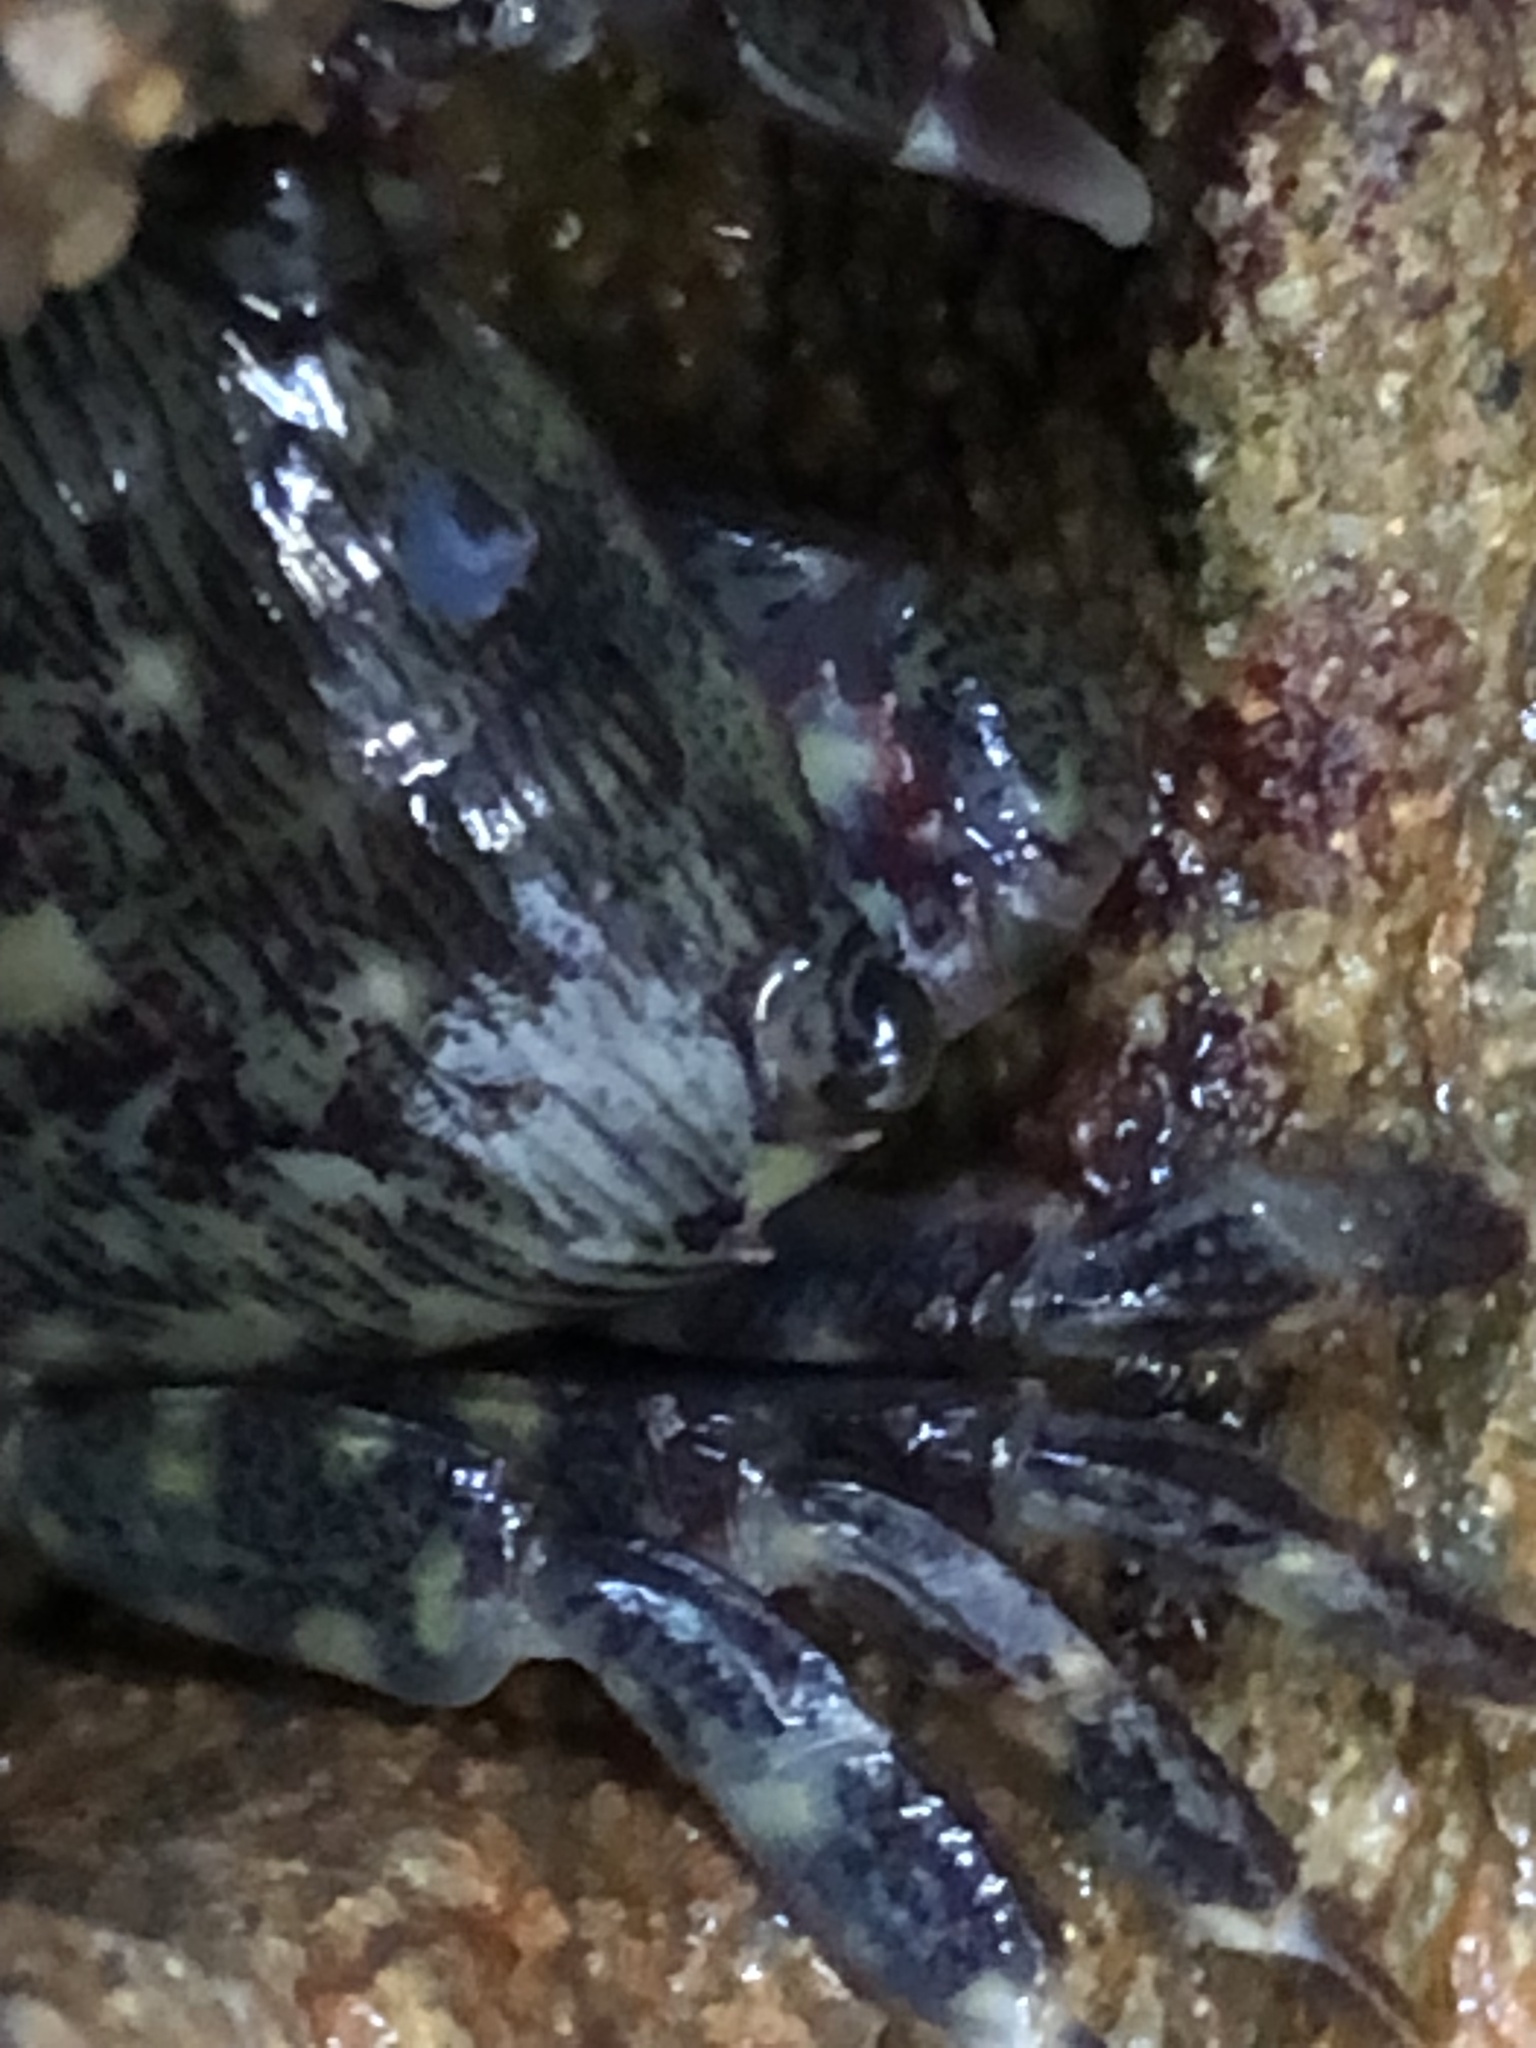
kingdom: Animalia
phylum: Arthropoda
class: Malacostraca
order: Decapoda
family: Grapsidae
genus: Pachygrapsus
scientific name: Pachygrapsus crassipes
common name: Striped shore crab
